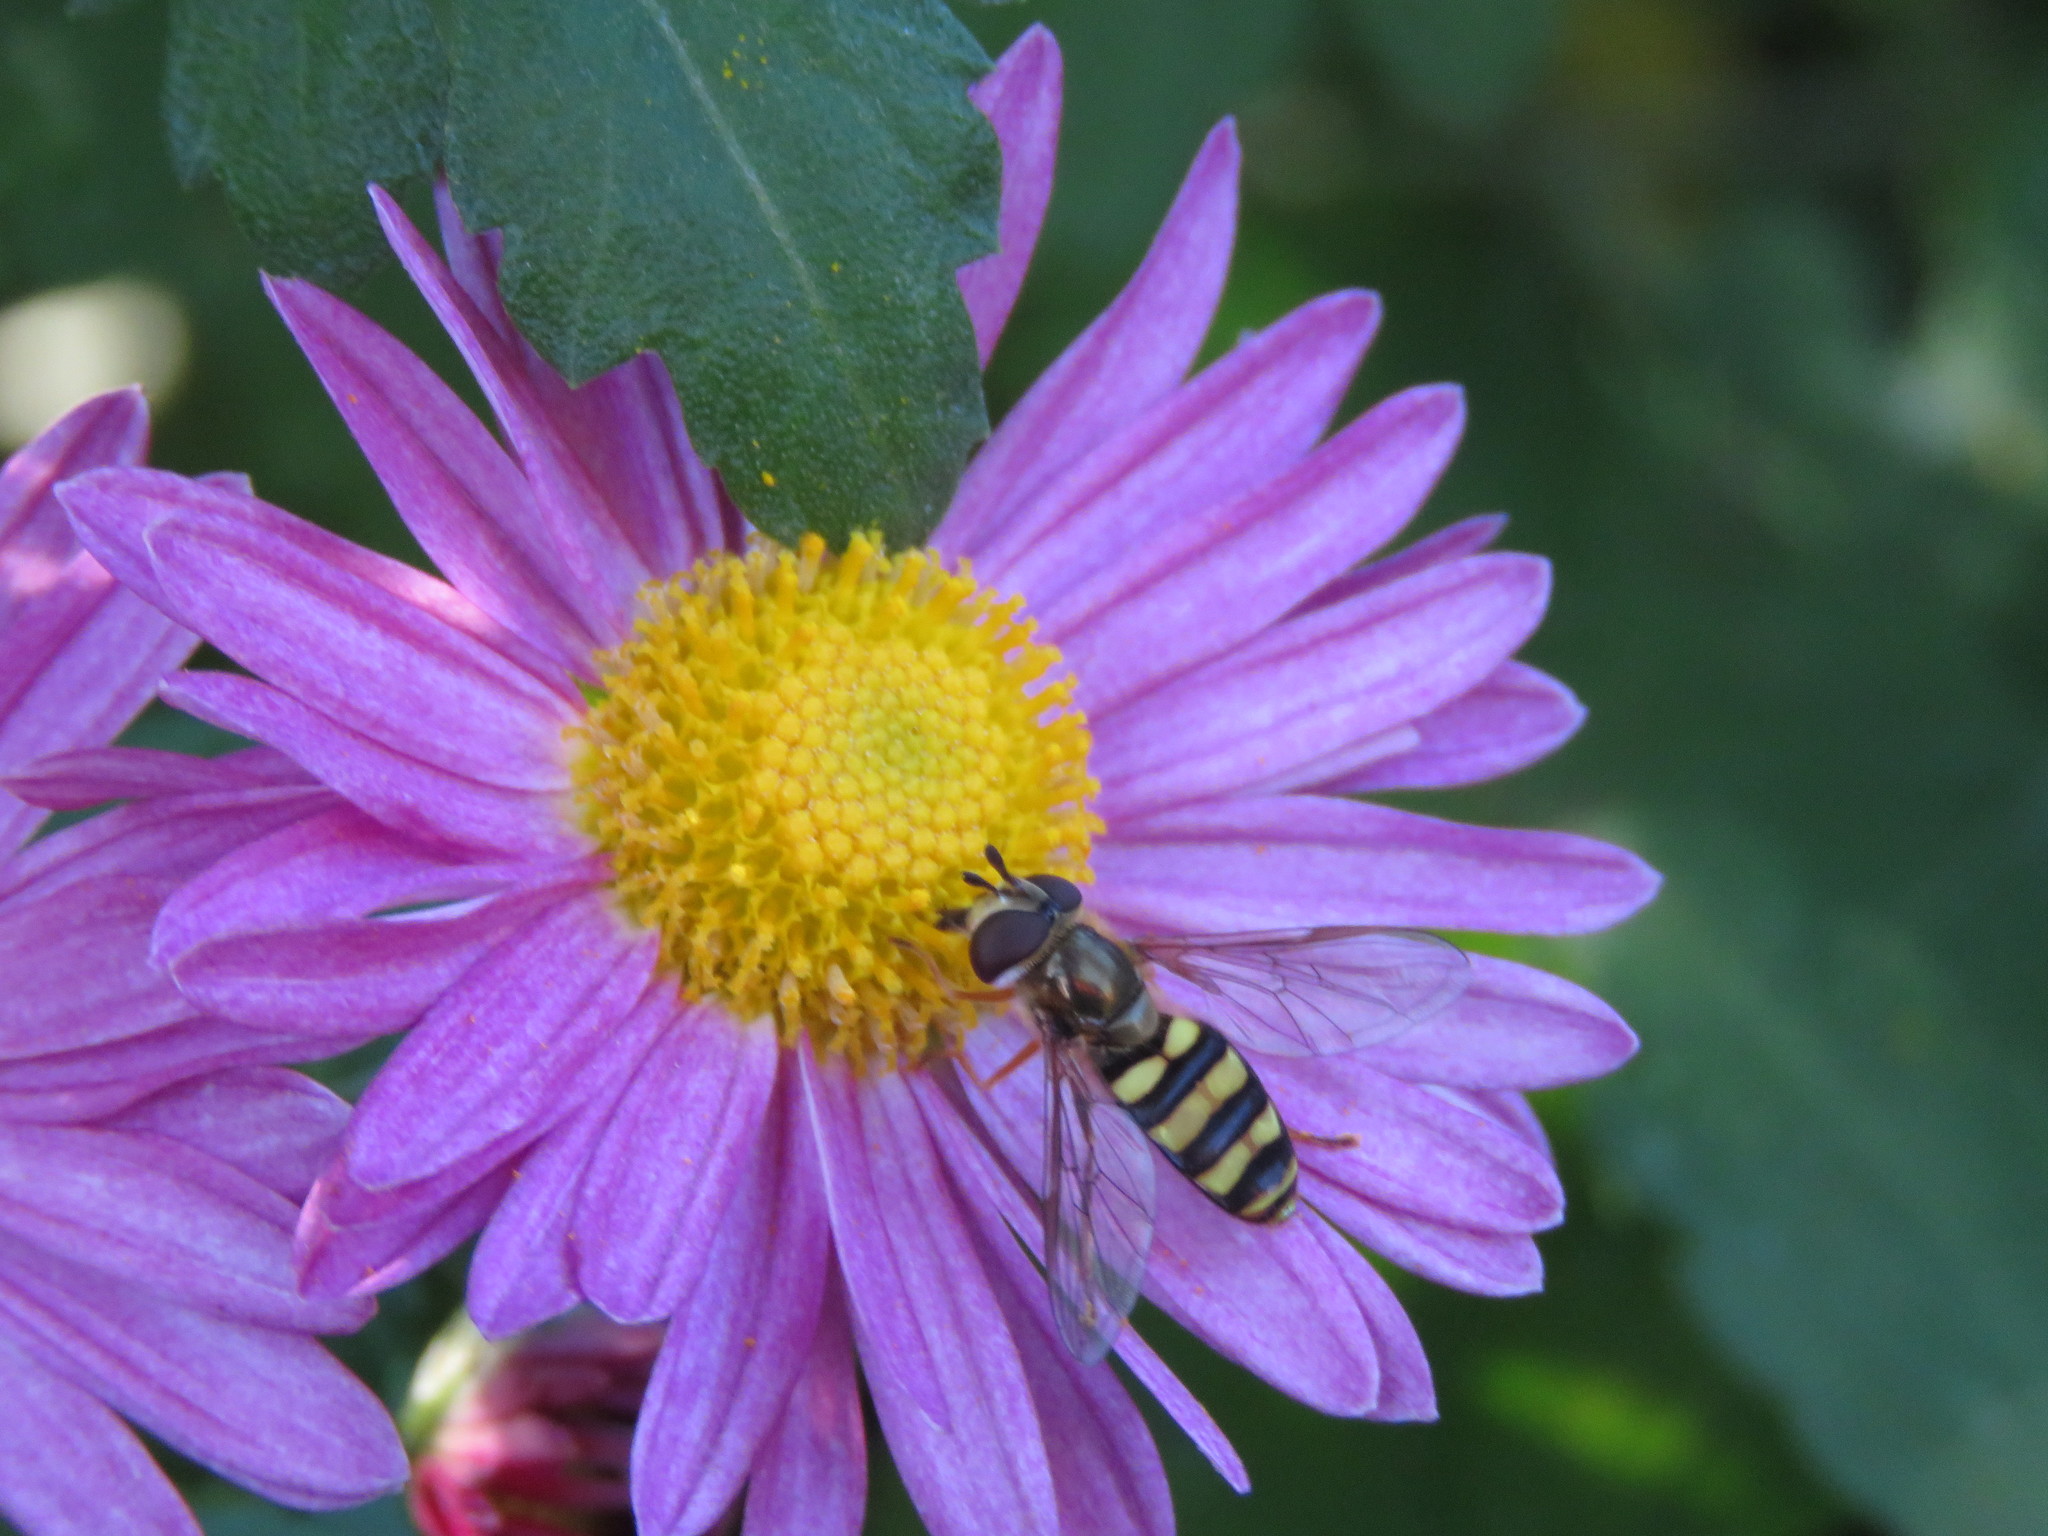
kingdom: Animalia
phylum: Arthropoda
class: Insecta
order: Diptera
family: Syrphidae
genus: Eupeodes
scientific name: Eupeodes
